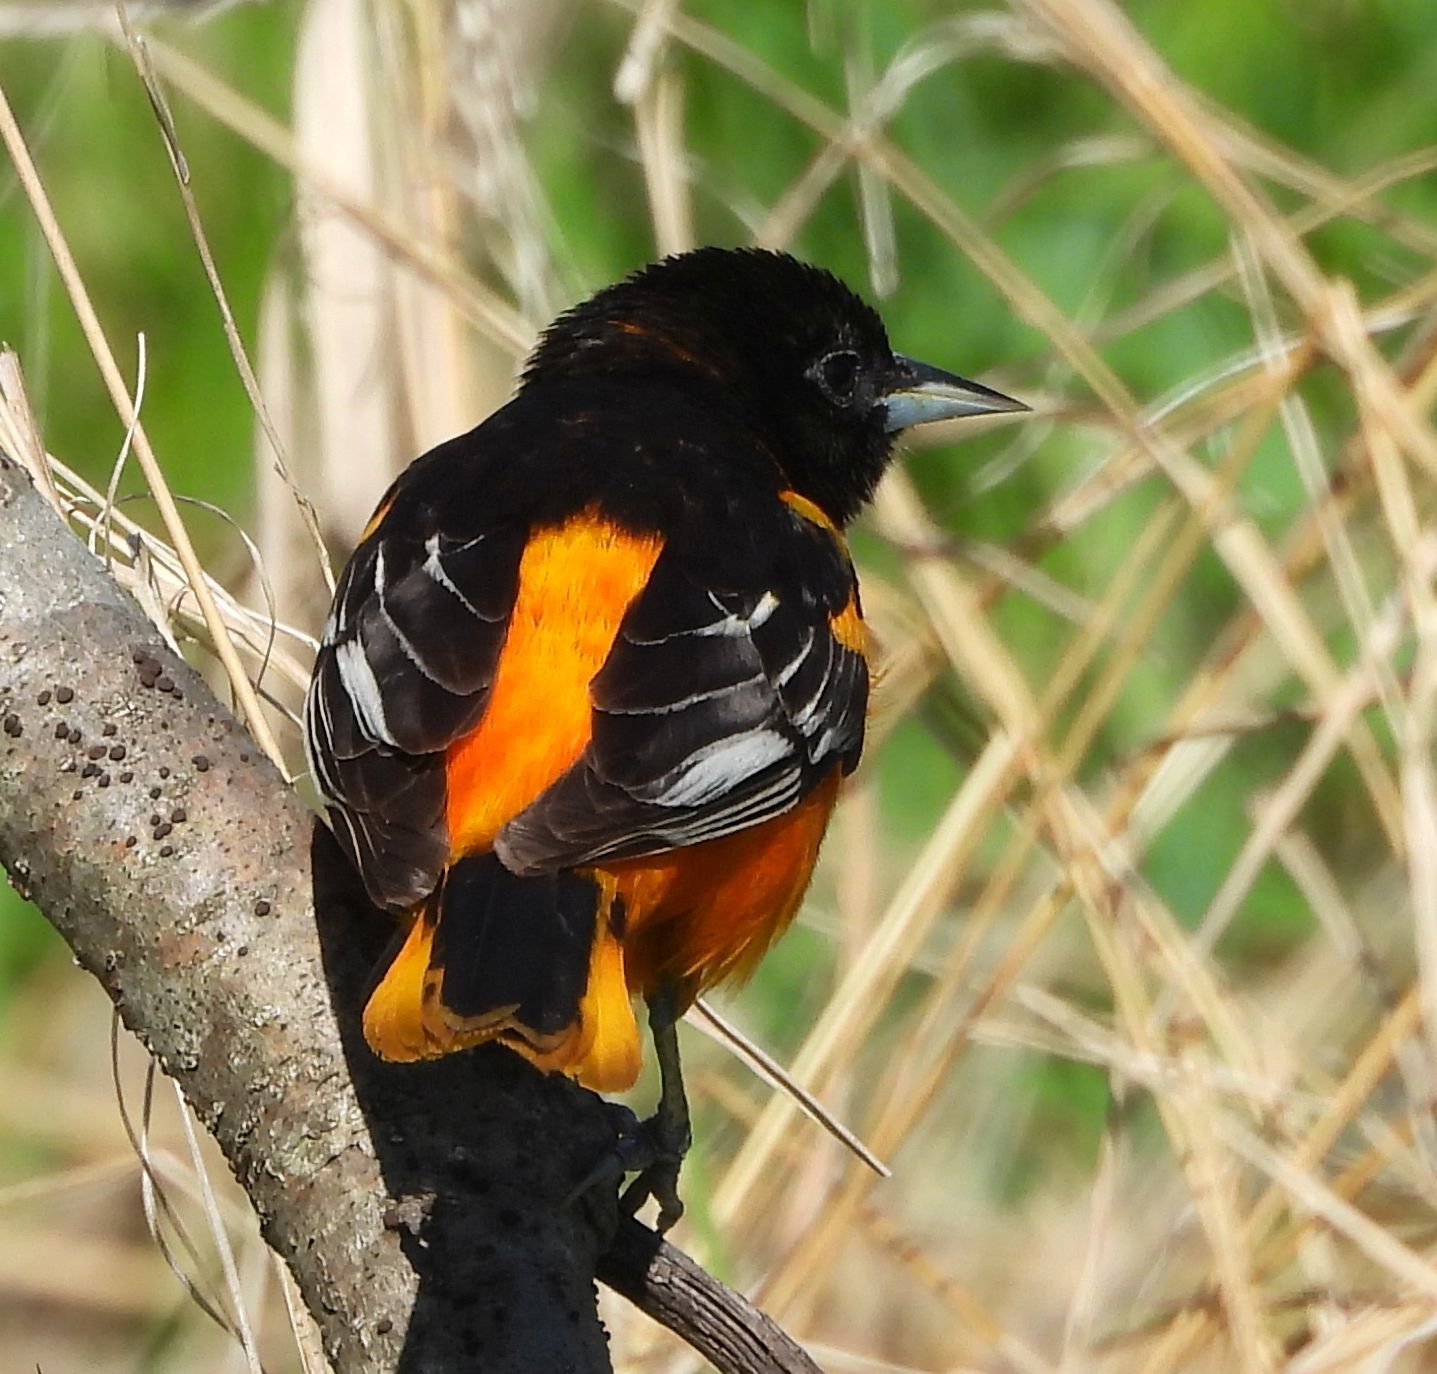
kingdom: Animalia
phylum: Chordata
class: Aves
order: Passeriformes
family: Icteridae
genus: Icterus
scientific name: Icterus galbula
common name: Baltimore oriole
